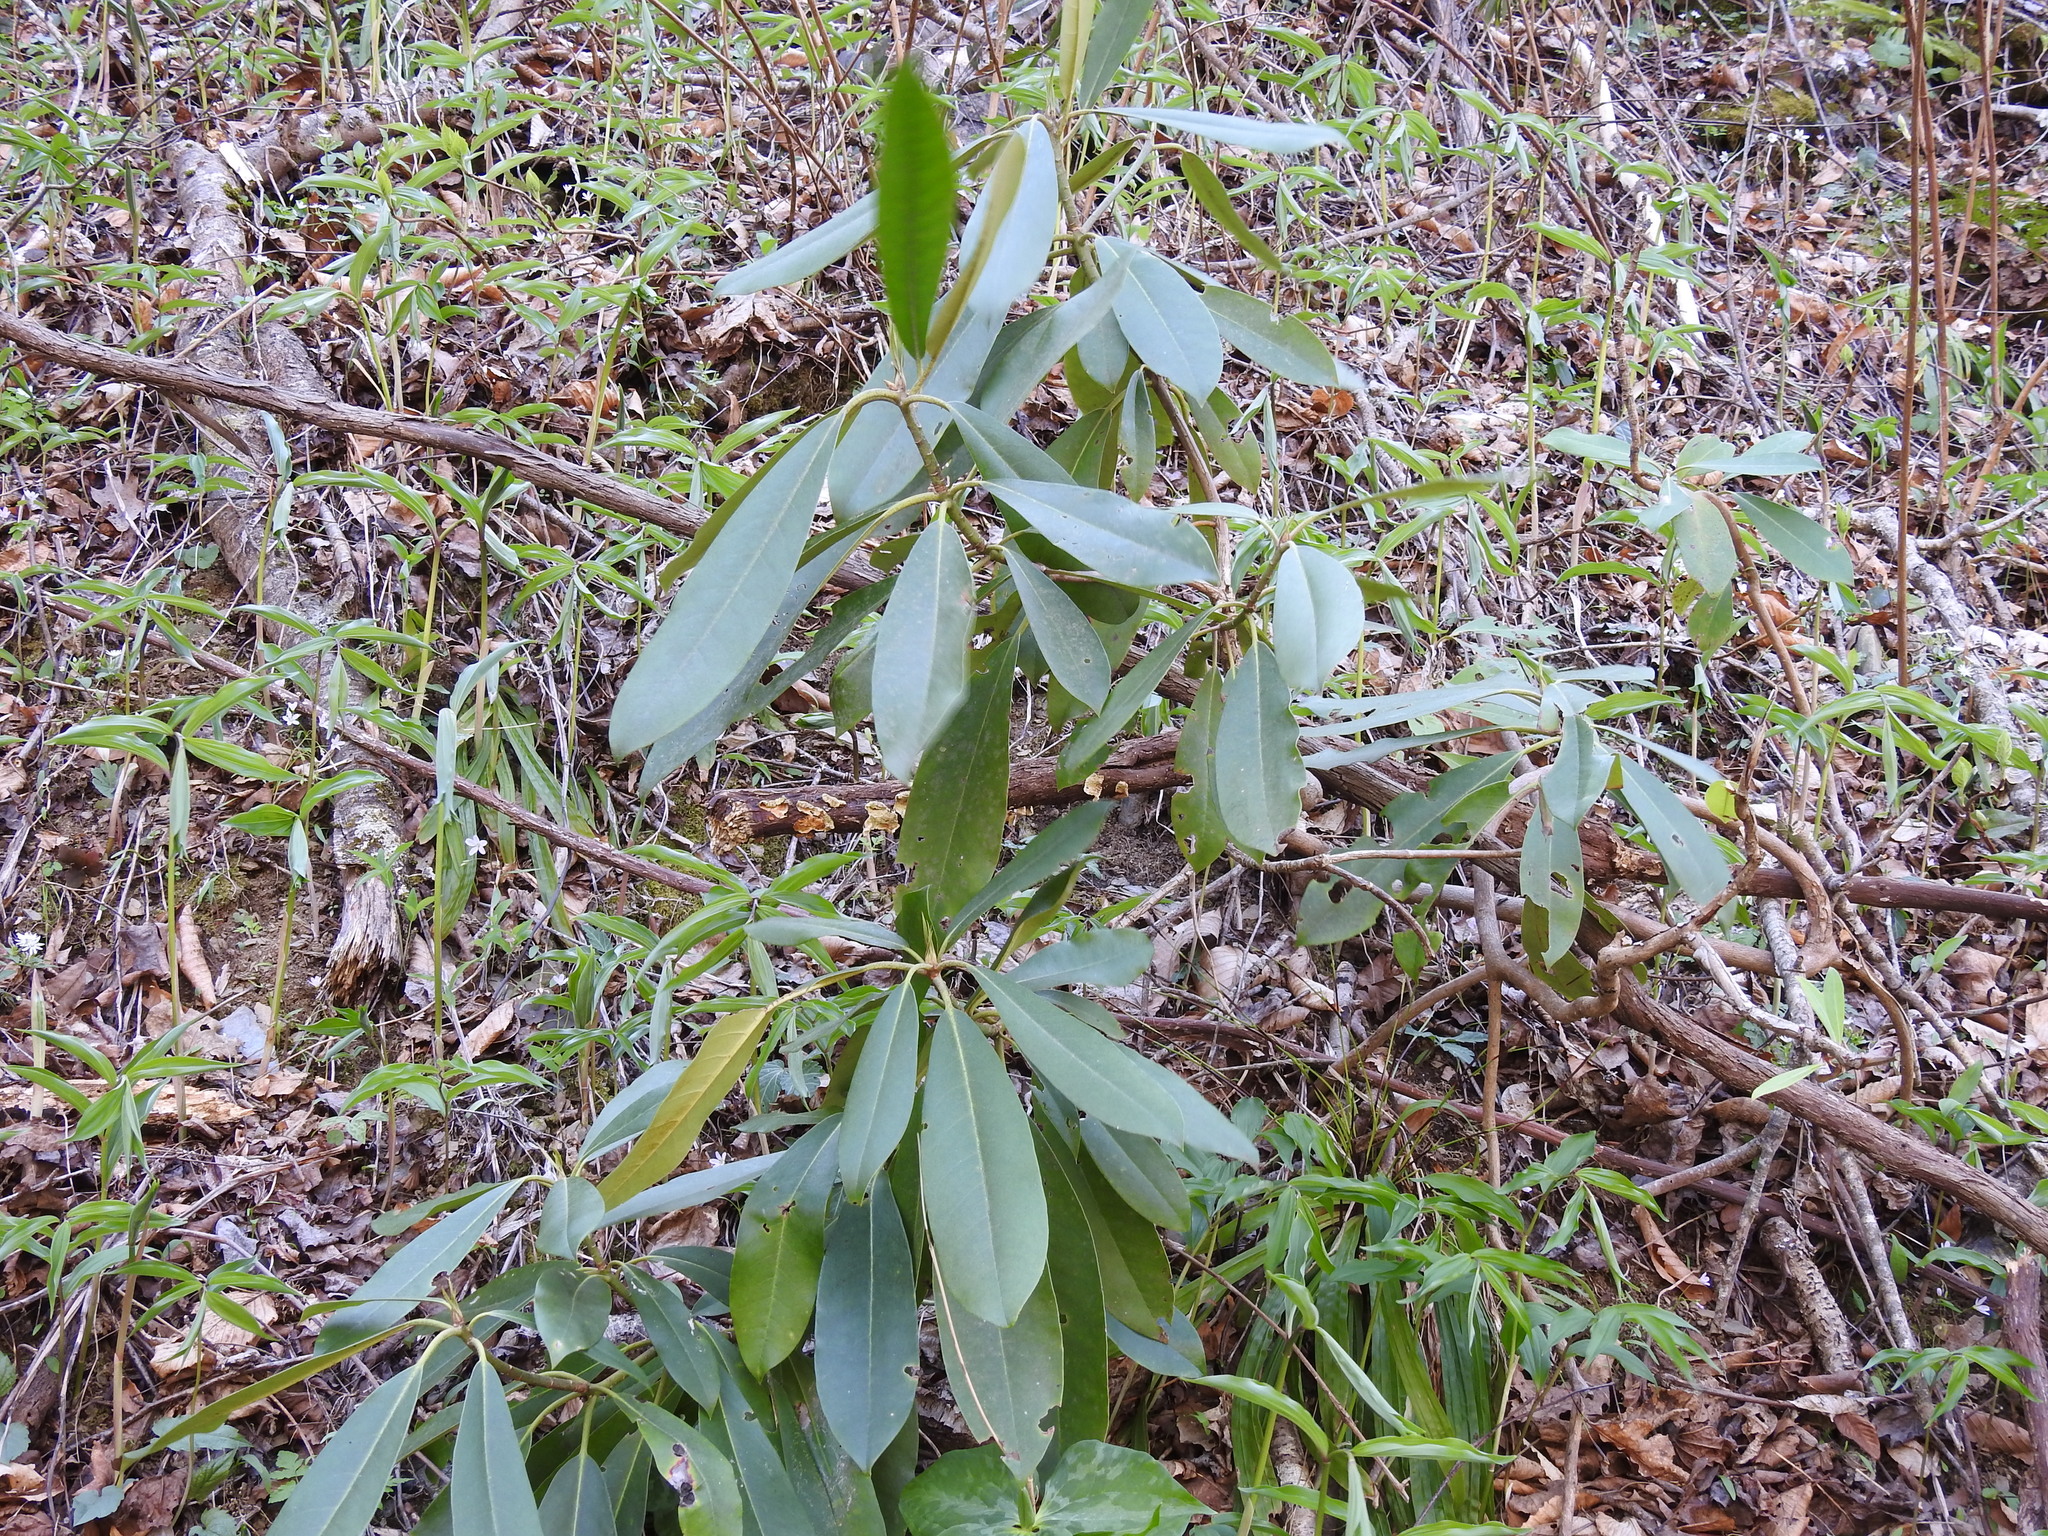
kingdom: Plantae
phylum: Tracheophyta
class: Magnoliopsida
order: Ericales
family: Ericaceae
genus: Rhododendron
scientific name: Rhododendron maximum
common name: Great rhododendron
